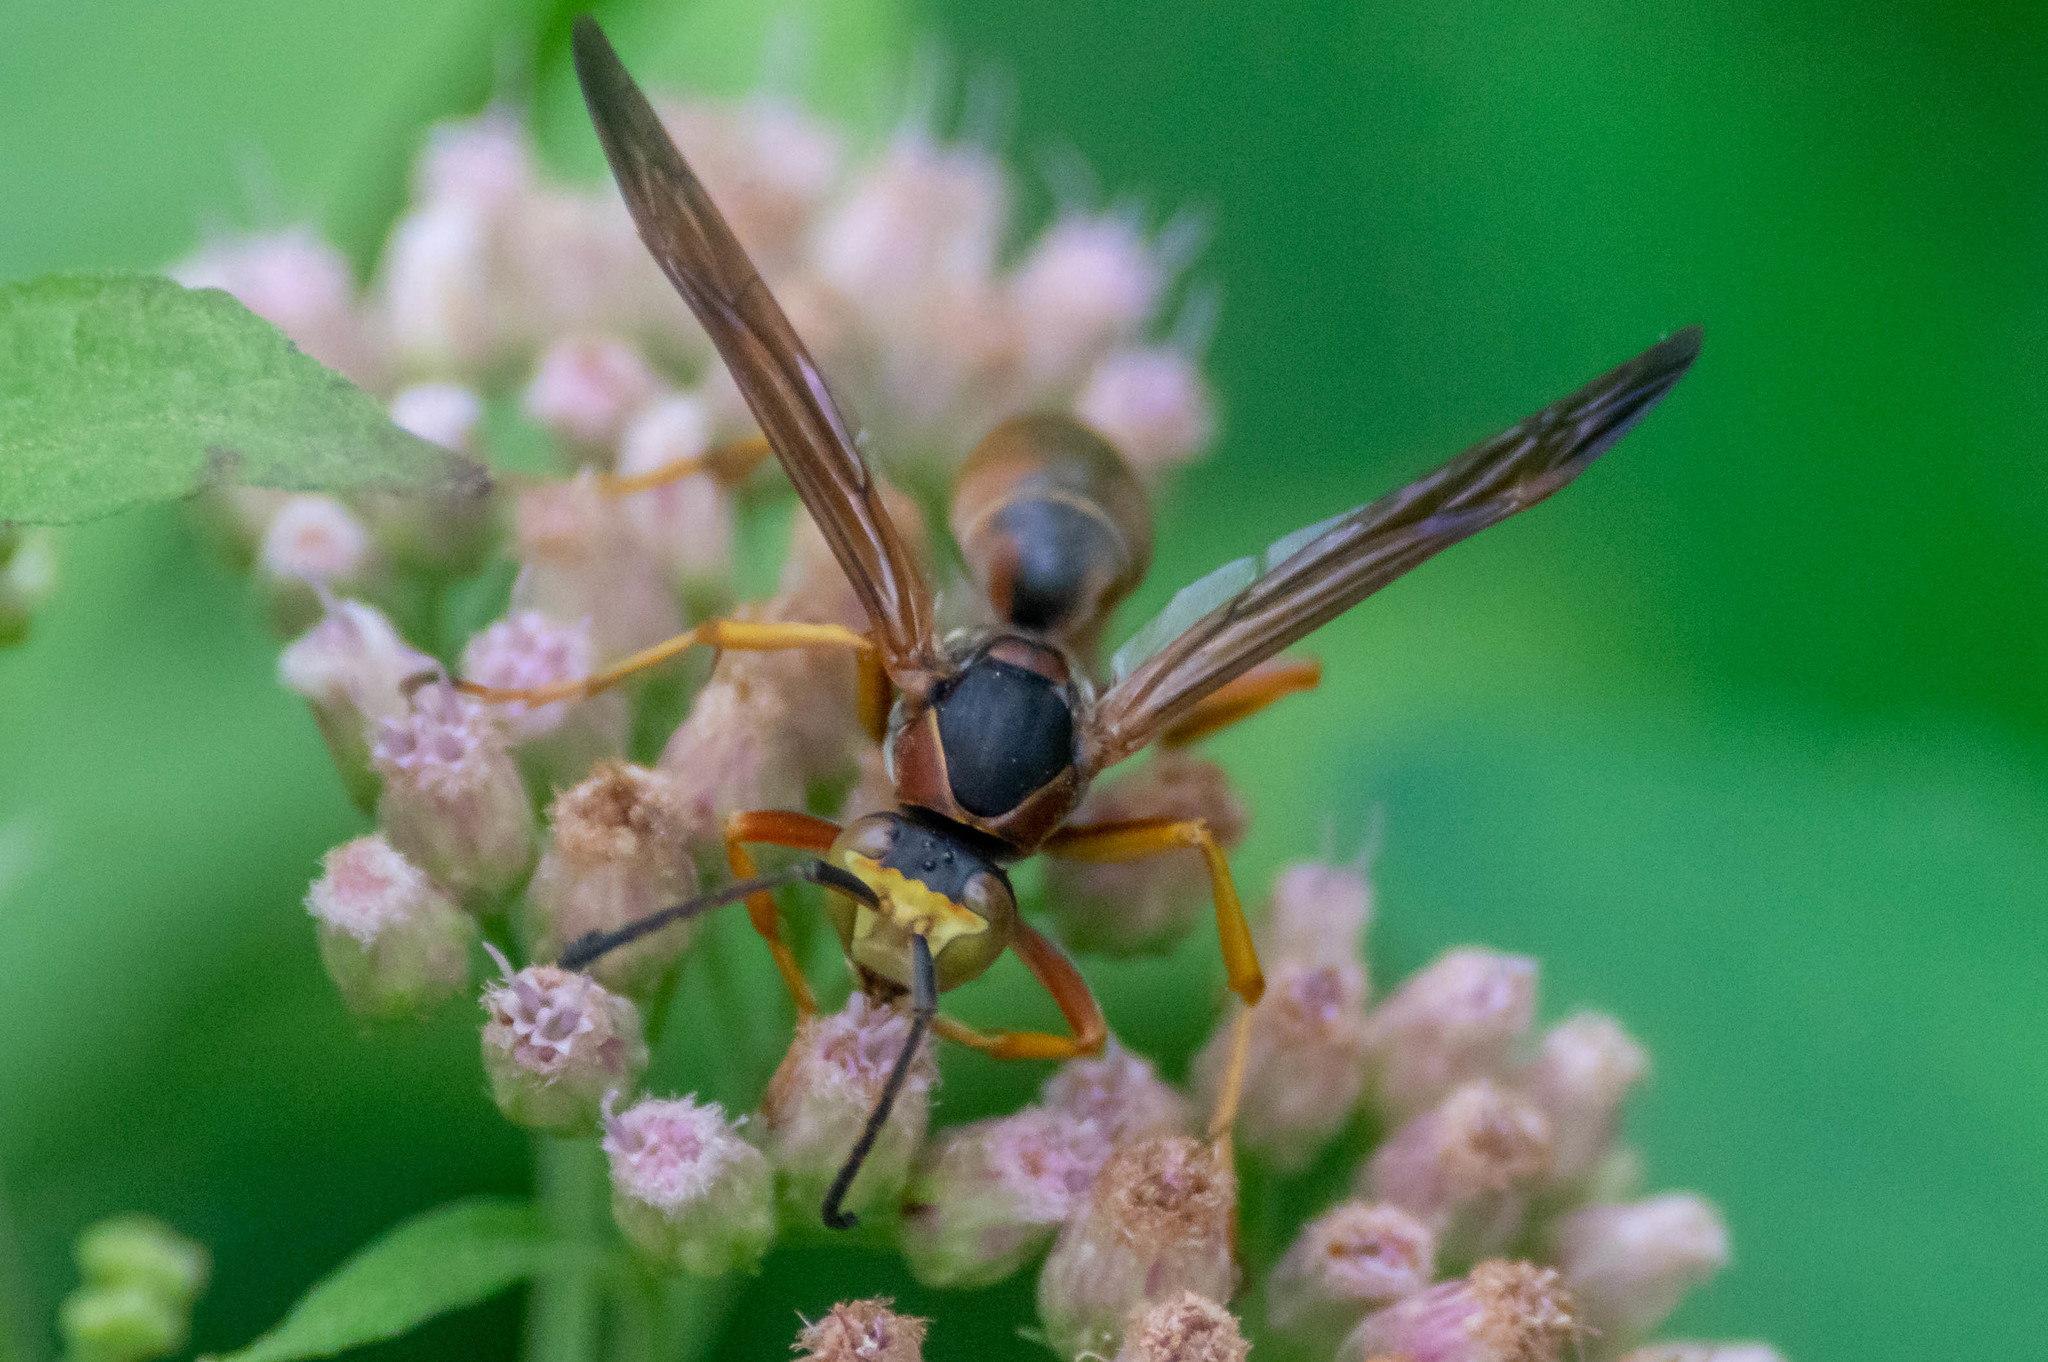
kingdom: Animalia
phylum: Arthropoda
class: Insecta
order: Hymenoptera
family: Eumenidae
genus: Polistes
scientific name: Polistes fuscatus
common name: Dark paper wasp
